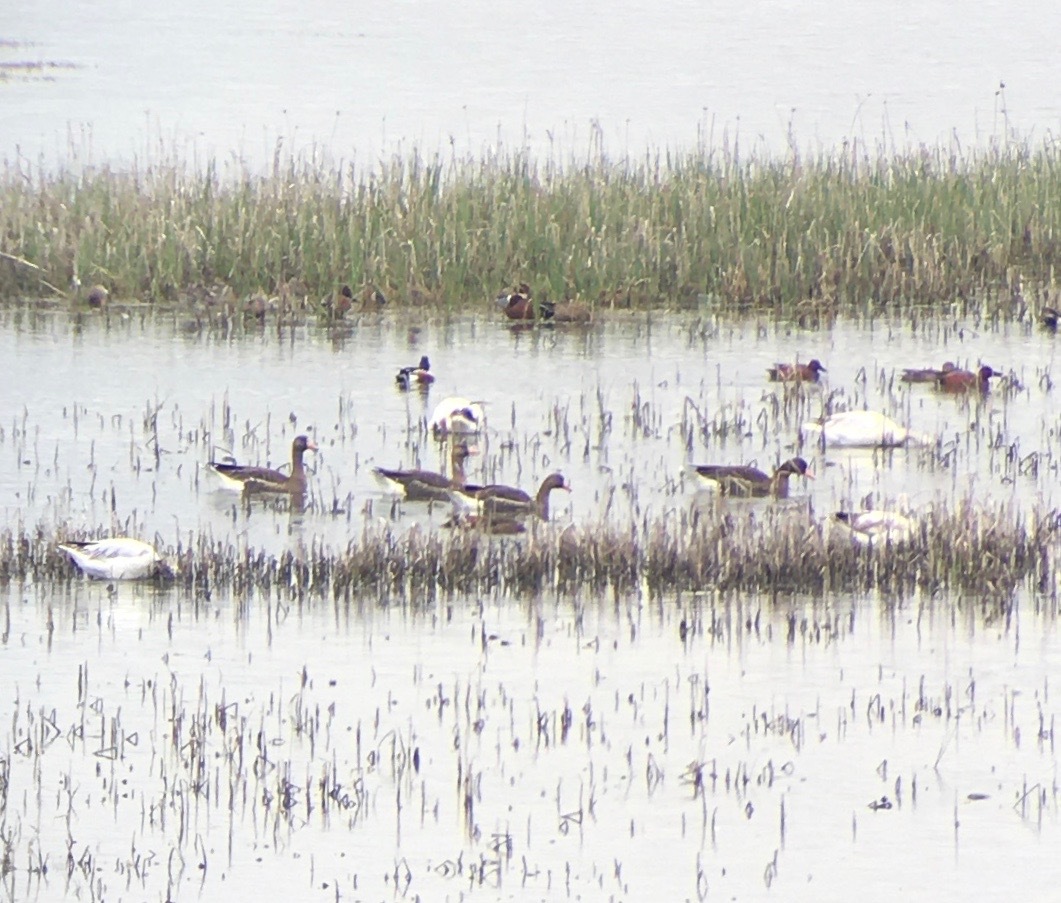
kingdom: Animalia
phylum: Chordata
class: Aves
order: Anseriformes
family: Anatidae
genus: Anser
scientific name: Anser albifrons
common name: Greater white-fronted goose
